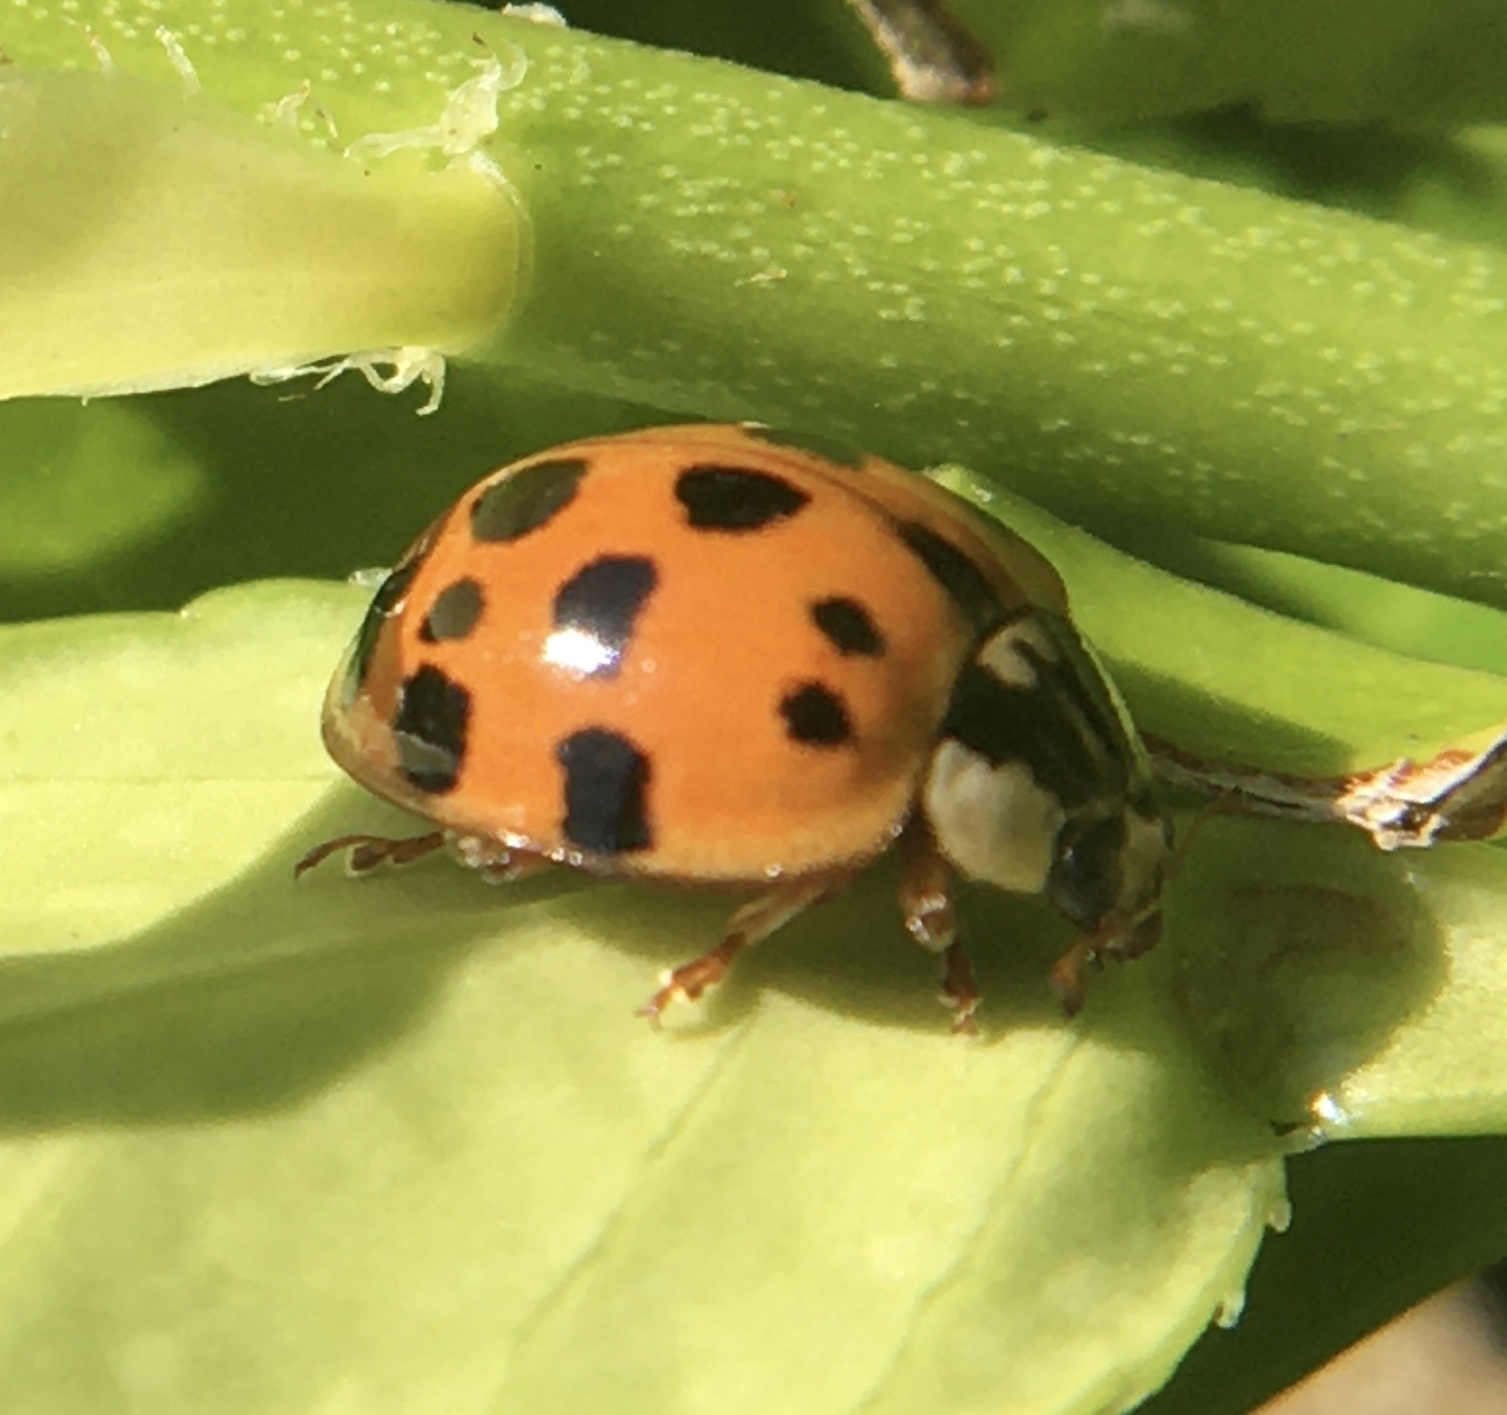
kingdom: Animalia
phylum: Arthropoda
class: Insecta
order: Coleoptera
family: Coccinellidae
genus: Harmonia
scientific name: Harmonia axyridis
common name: Harlequin ladybird
